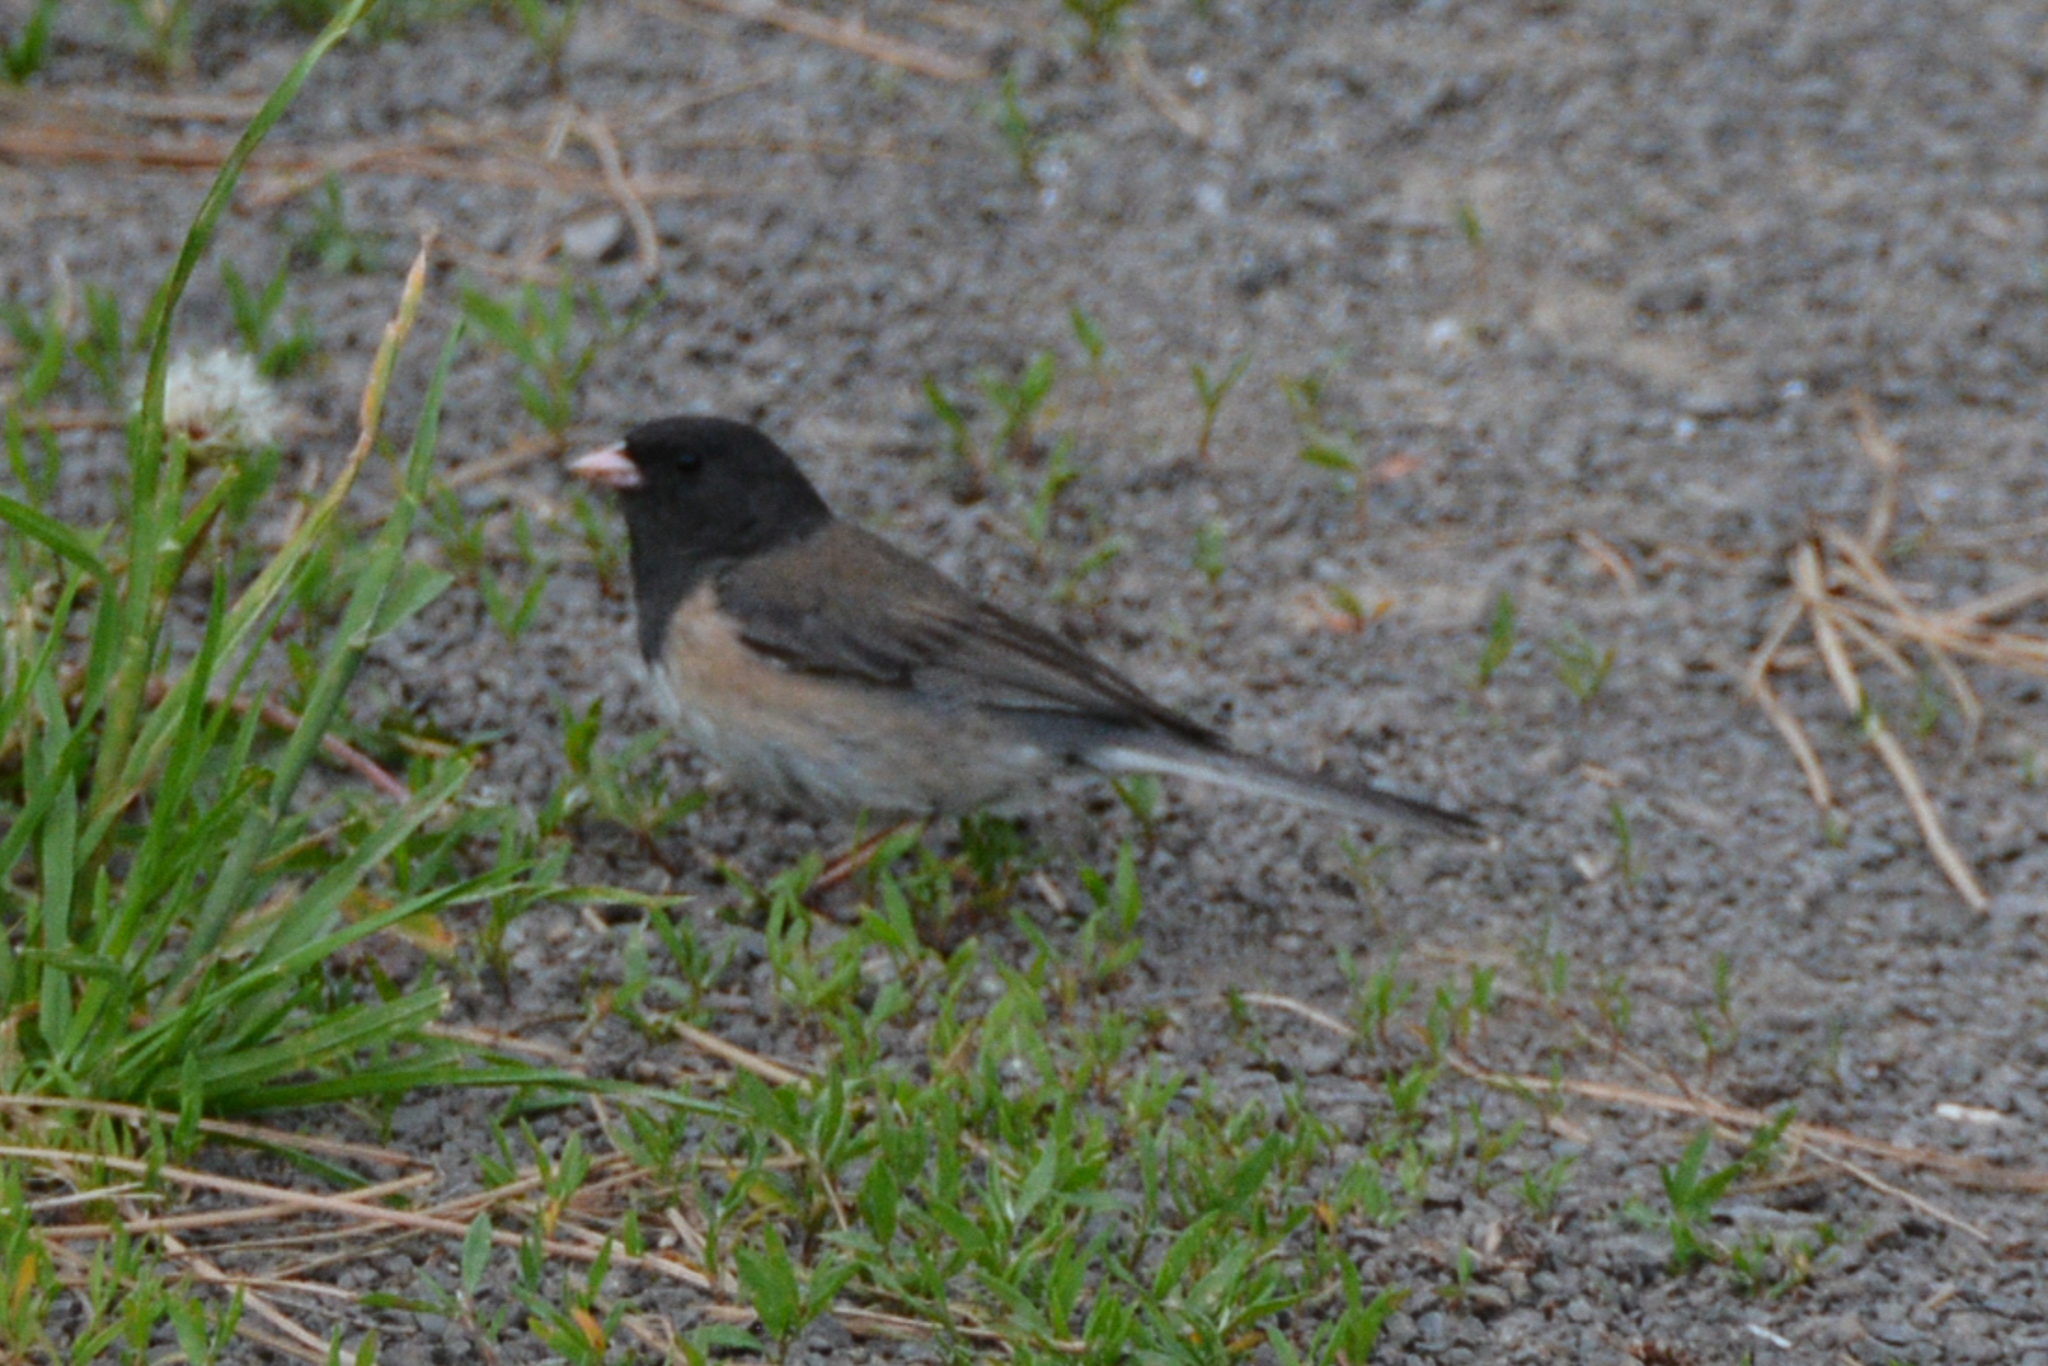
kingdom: Animalia
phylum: Chordata
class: Aves
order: Passeriformes
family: Passerellidae
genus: Junco
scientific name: Junco hyemalis
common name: Dark-eyed junco
